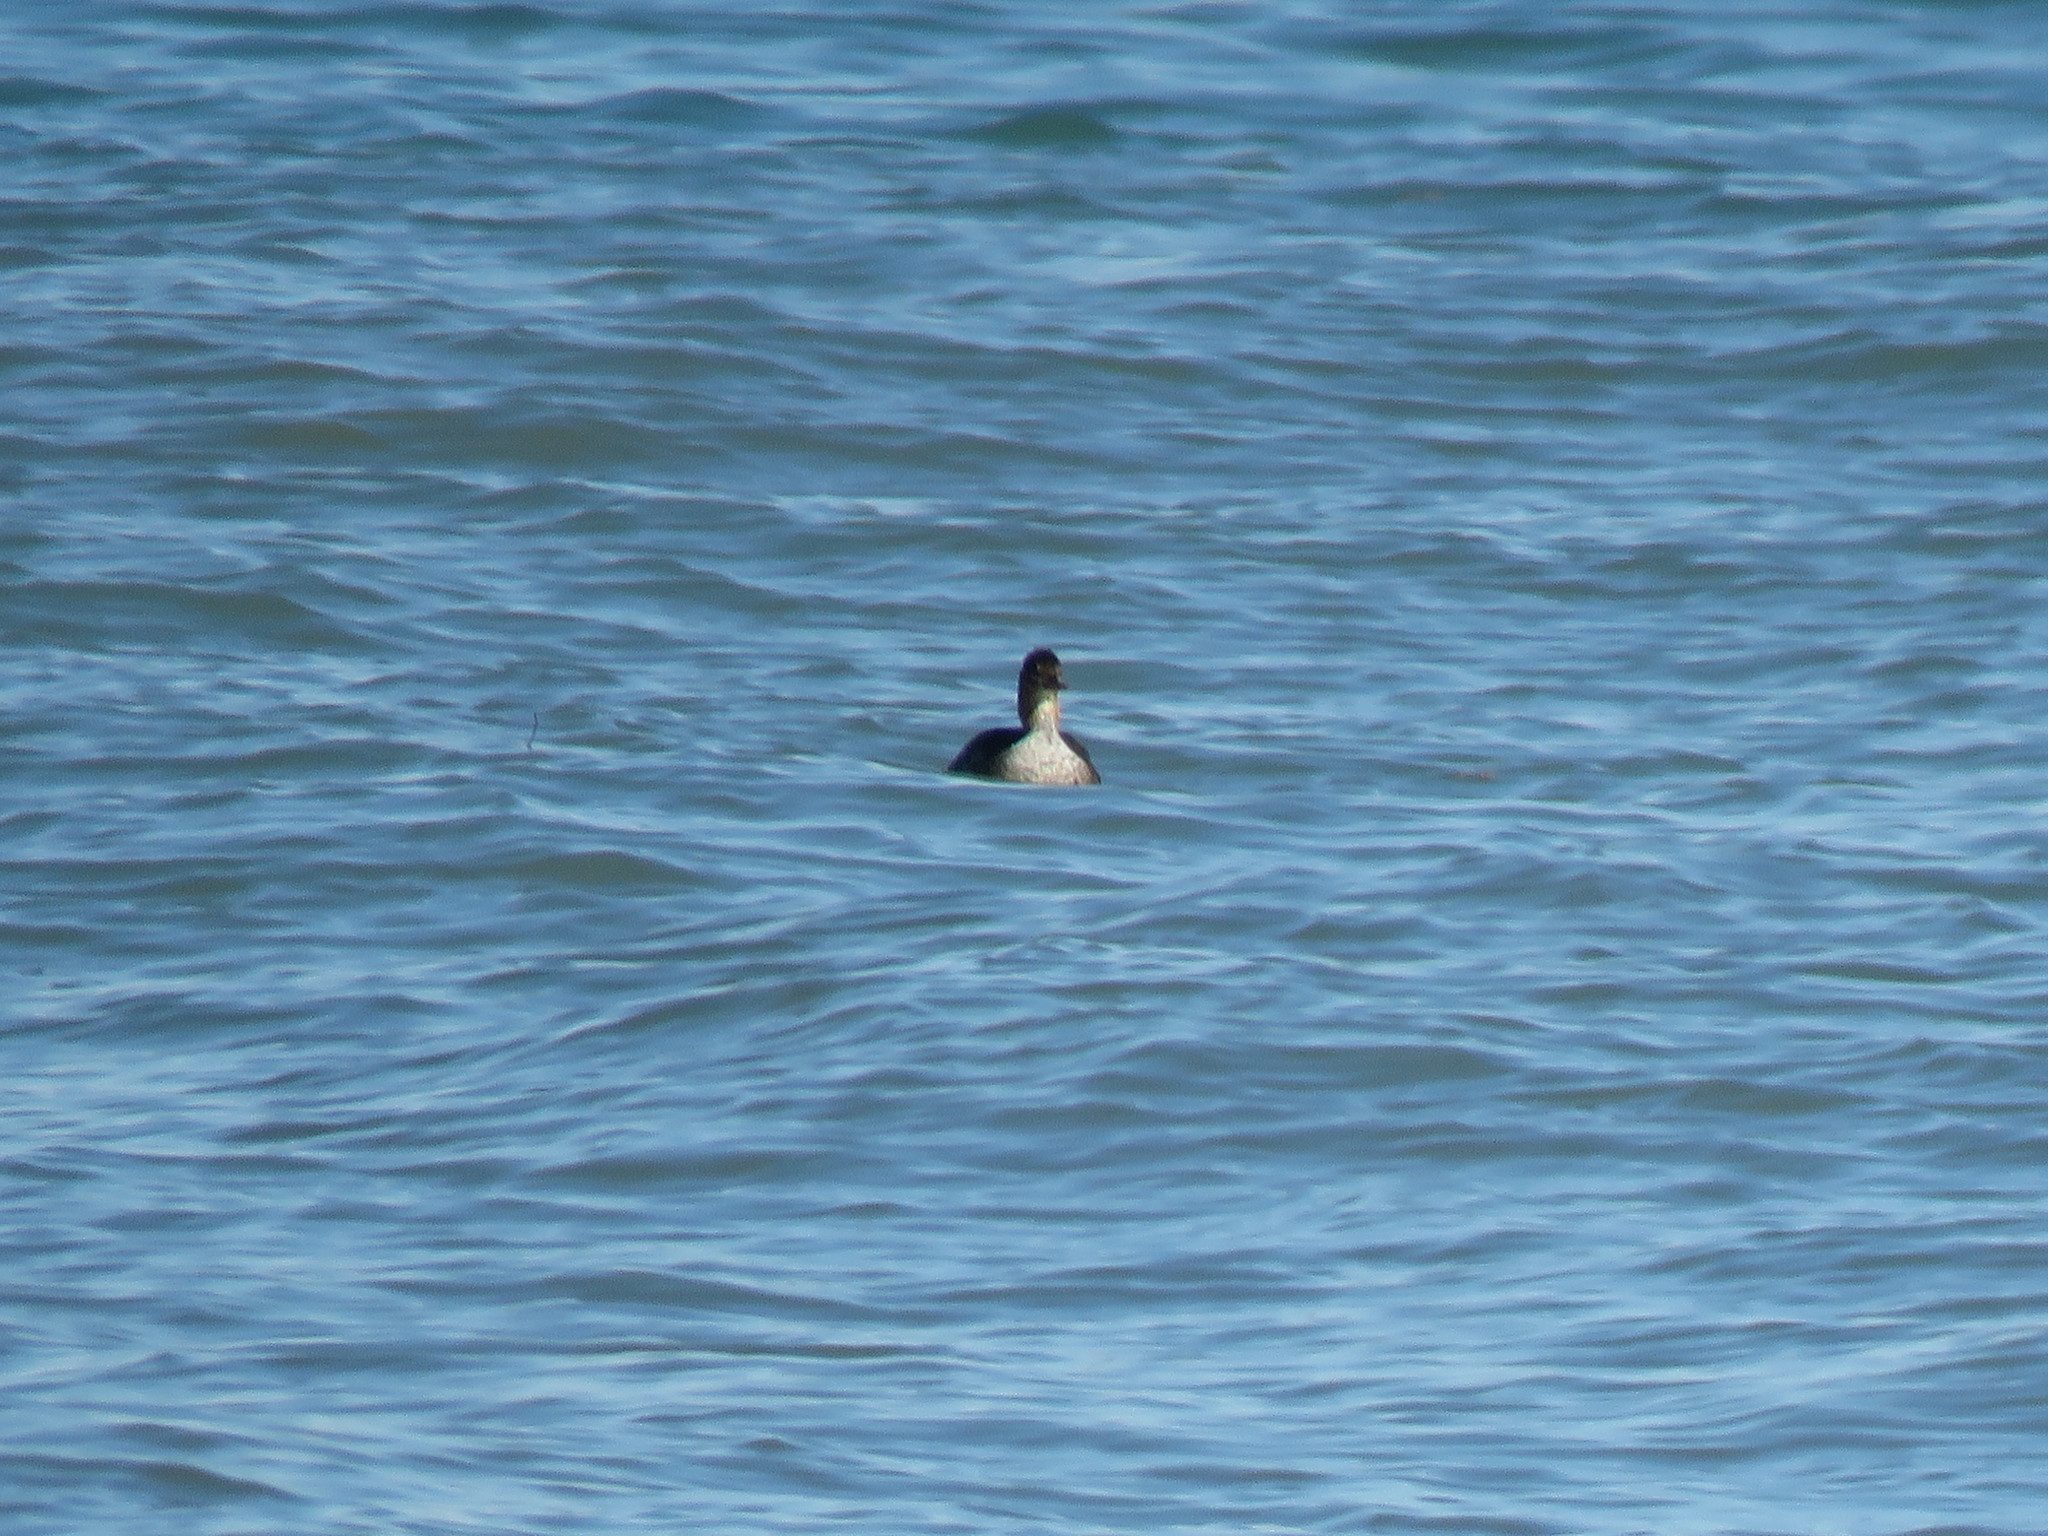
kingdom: Animalia
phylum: Chordata
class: Aves
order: Anseriformes
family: Anatidae
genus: Mergus
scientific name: Mergus serrator
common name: Red-breasted merganser
